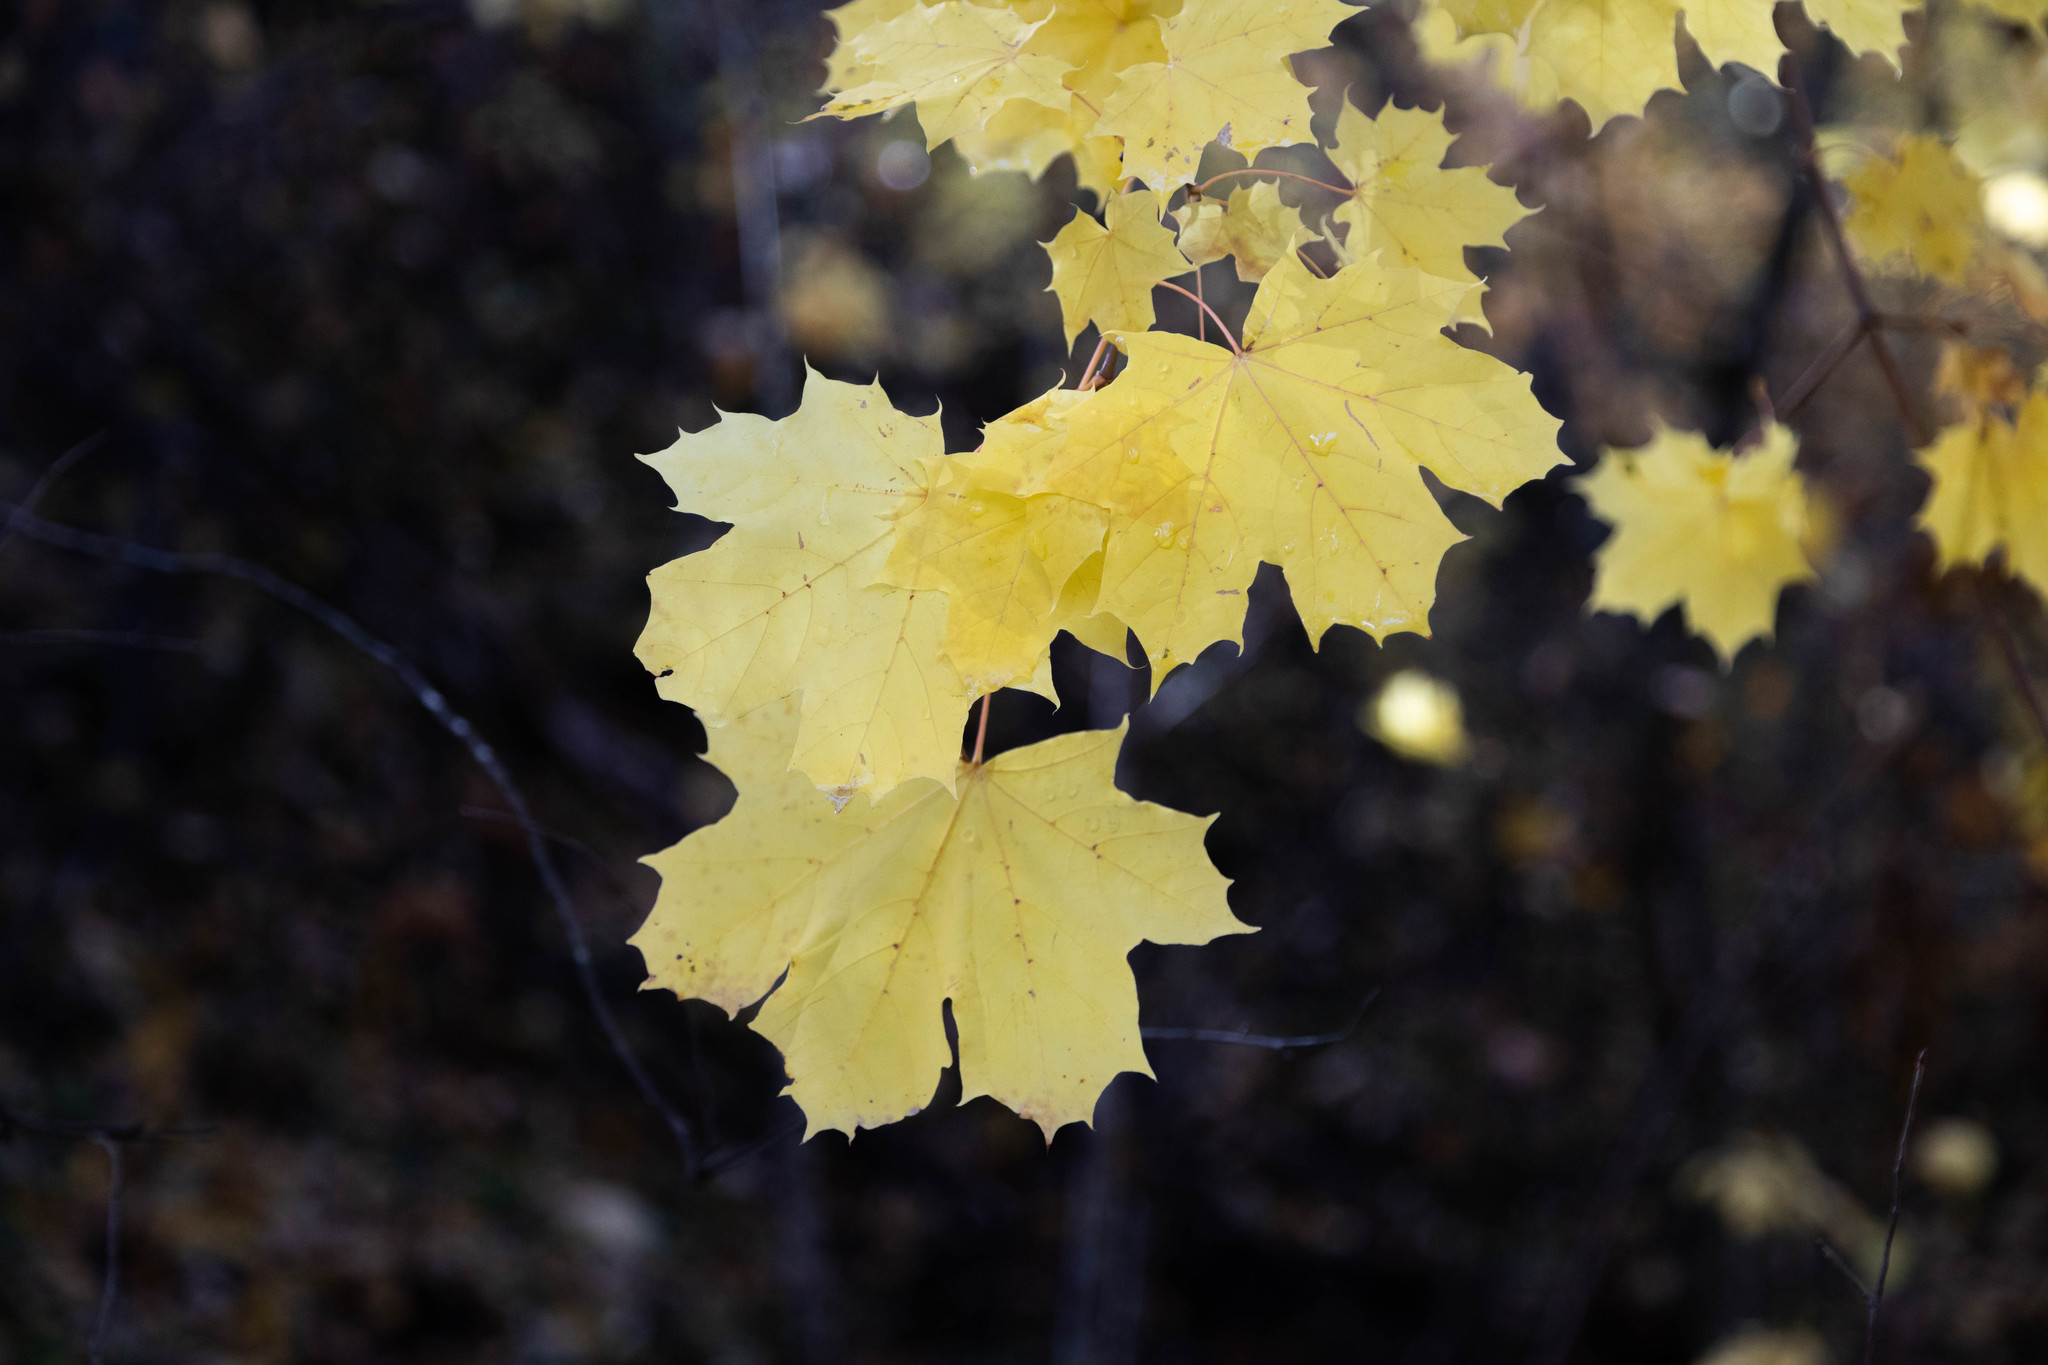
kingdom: Plantae
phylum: Tracheophyta
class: Magnoliopsida
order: Sapindales
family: Sapindaceae
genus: Acer
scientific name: Acer platanoides
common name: Norway maple
